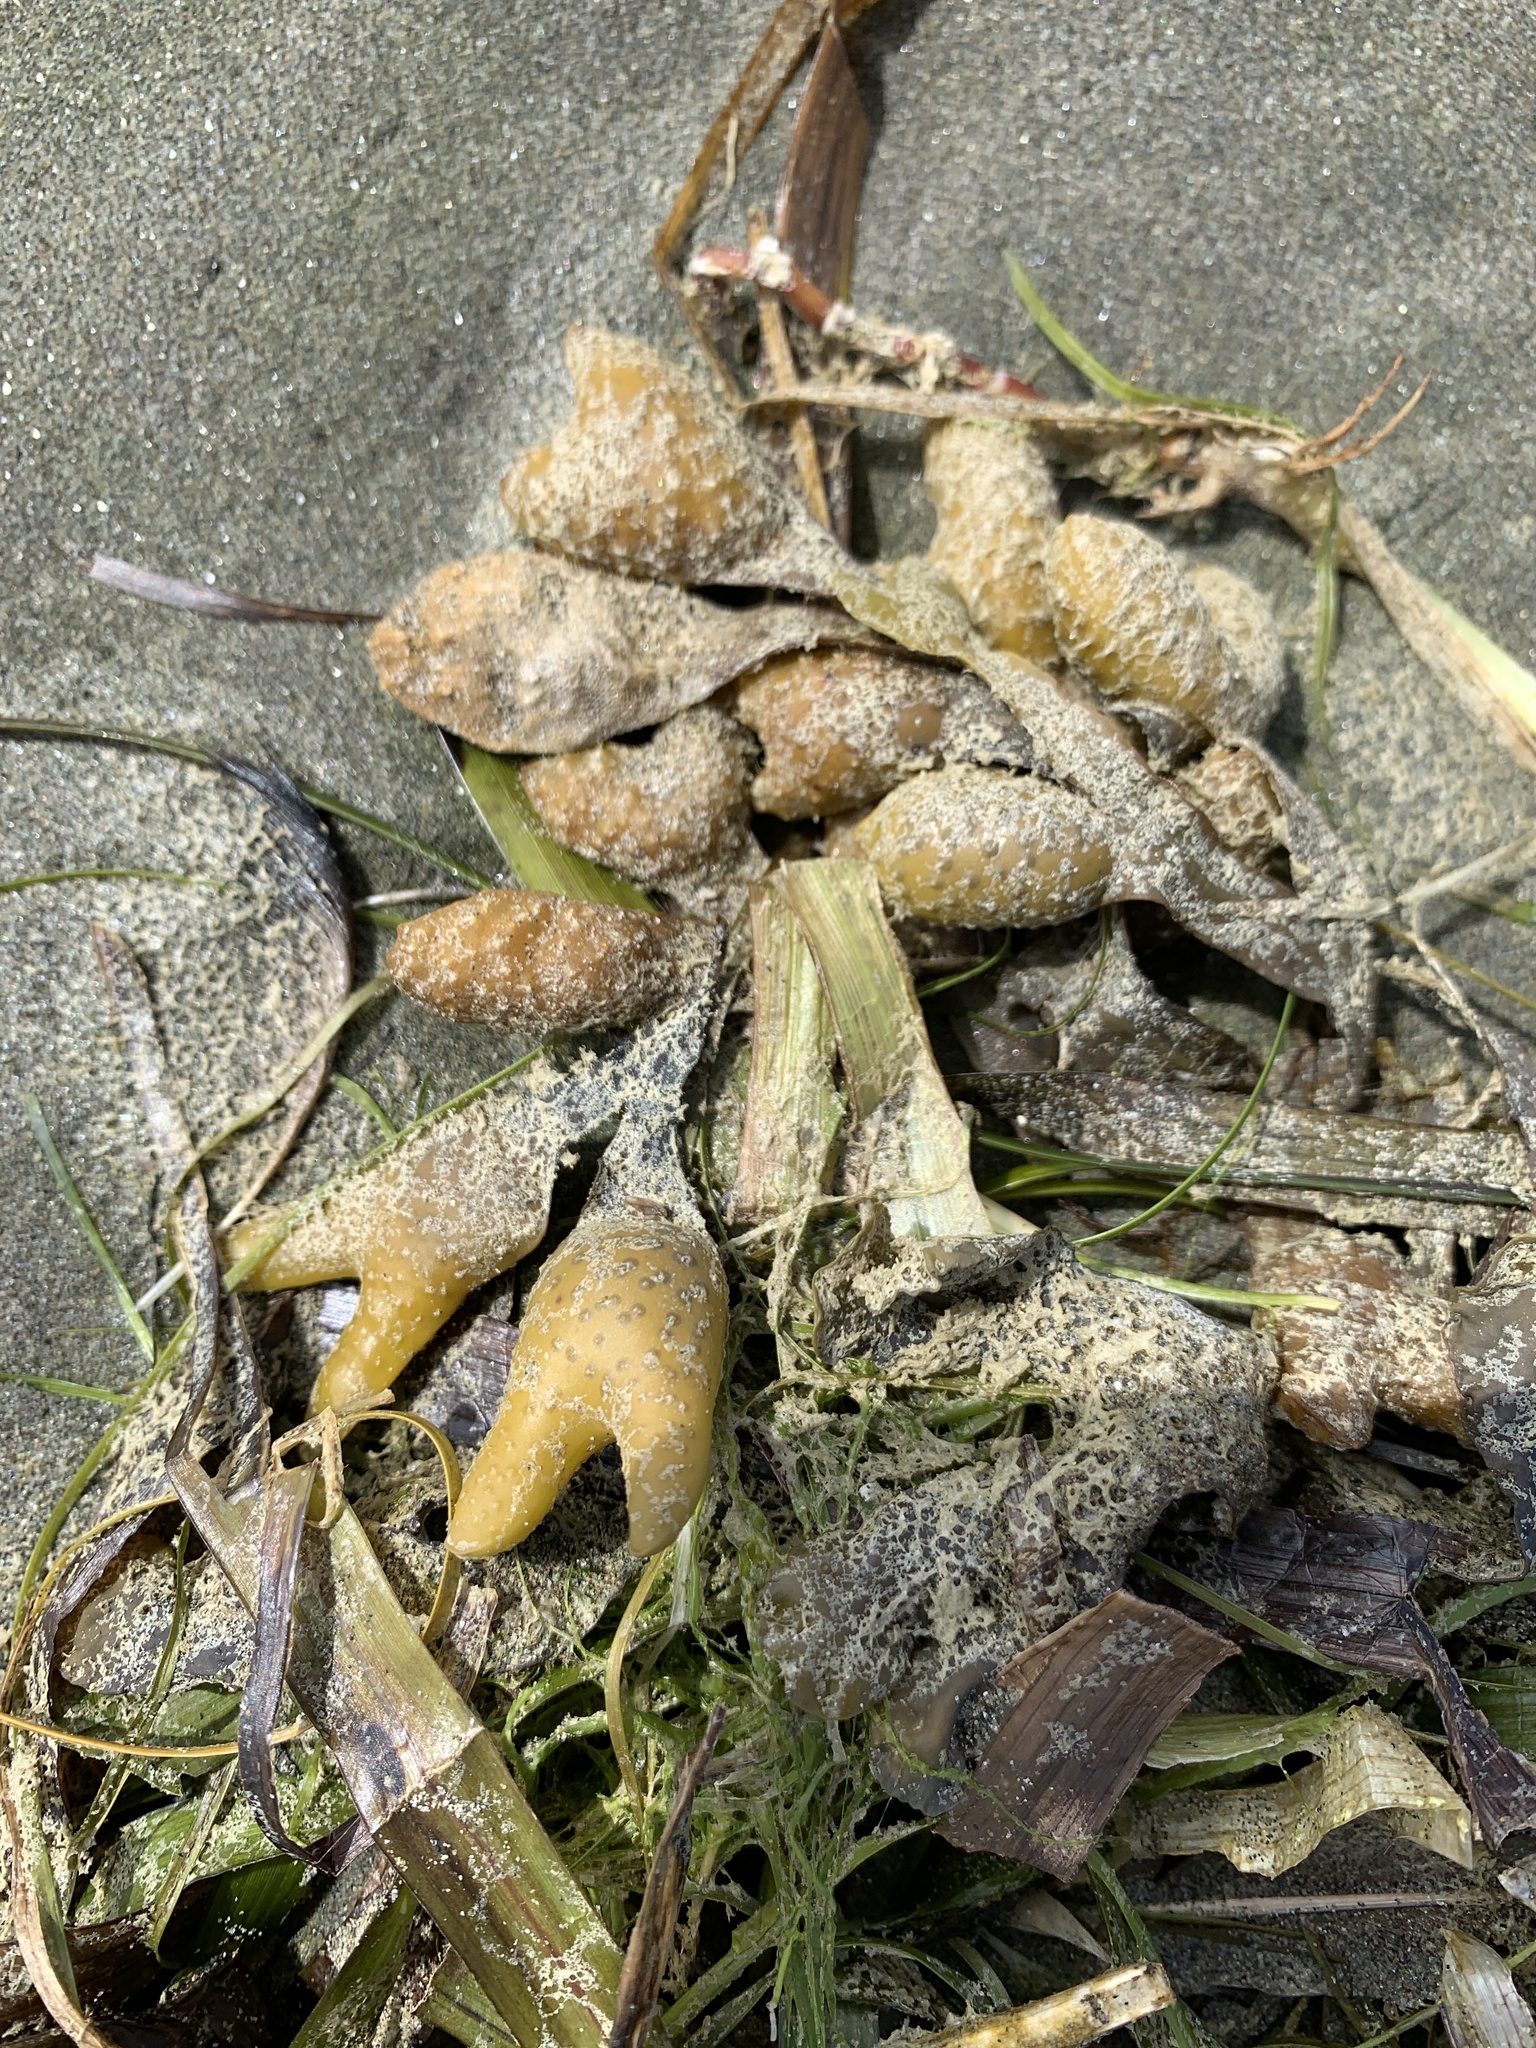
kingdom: Chromista
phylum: Ochrophyta
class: Phaeophyceae
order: Fucales
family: Fucaceae
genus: Fucus
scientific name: Fucus distichus
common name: Rockweed
